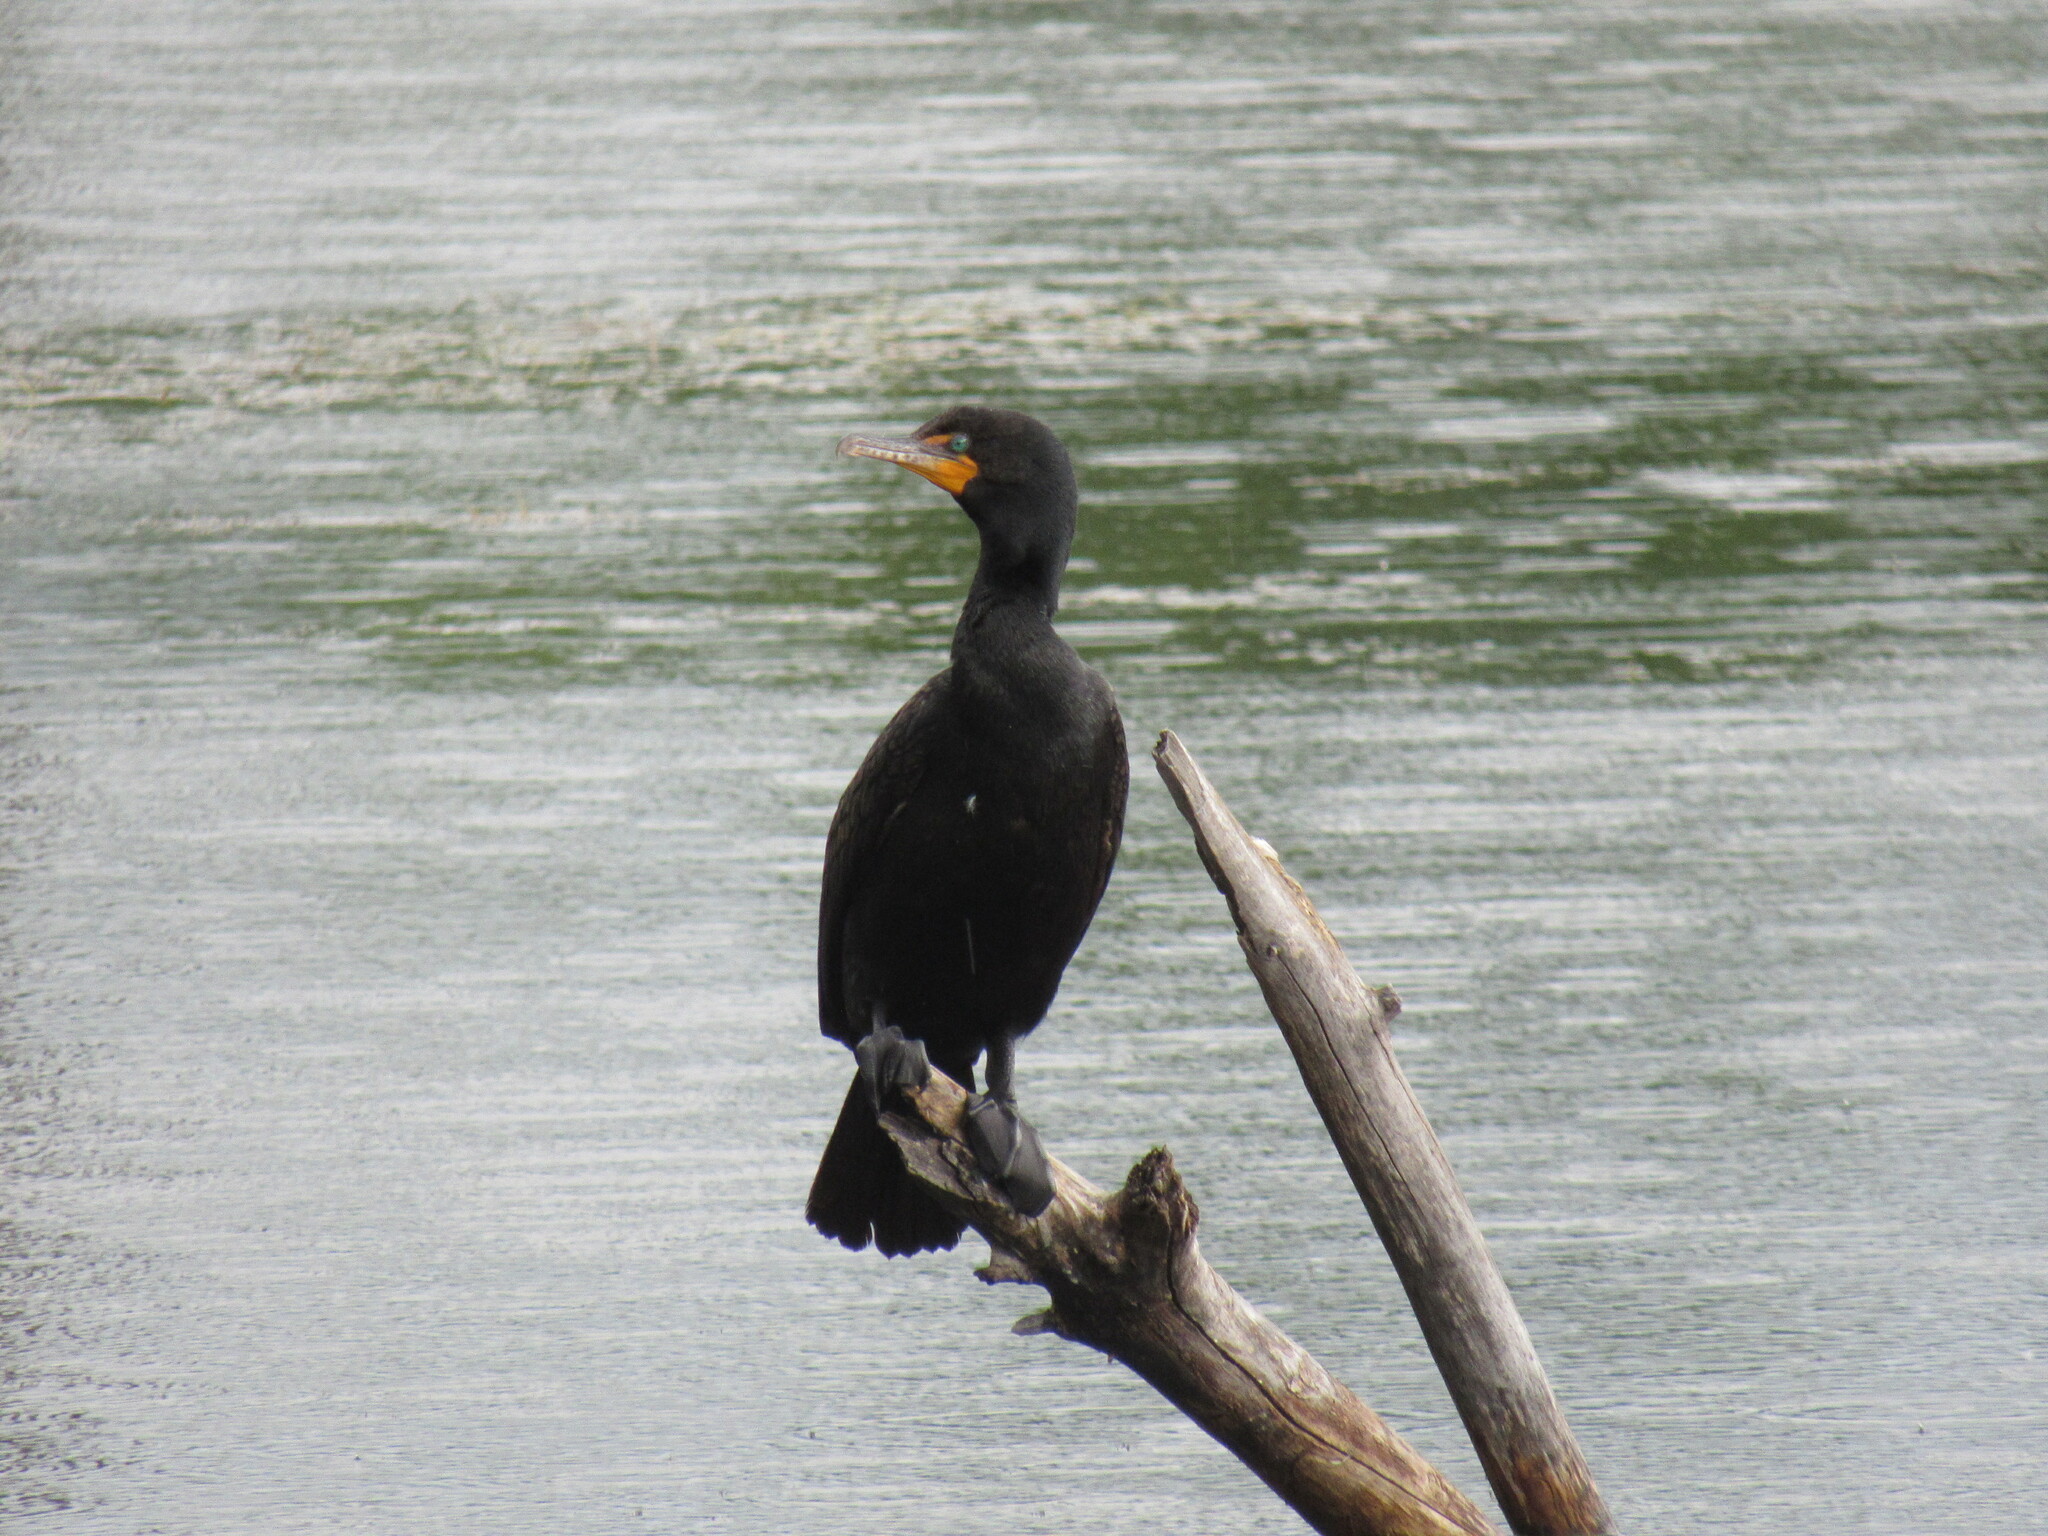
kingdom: Animalia
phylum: Chordata
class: Aves
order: Suliformes
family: Phalacrocoracidae
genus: Phalacrocorax
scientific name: Phalacrocorax auritus
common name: Double-crested cormorant
